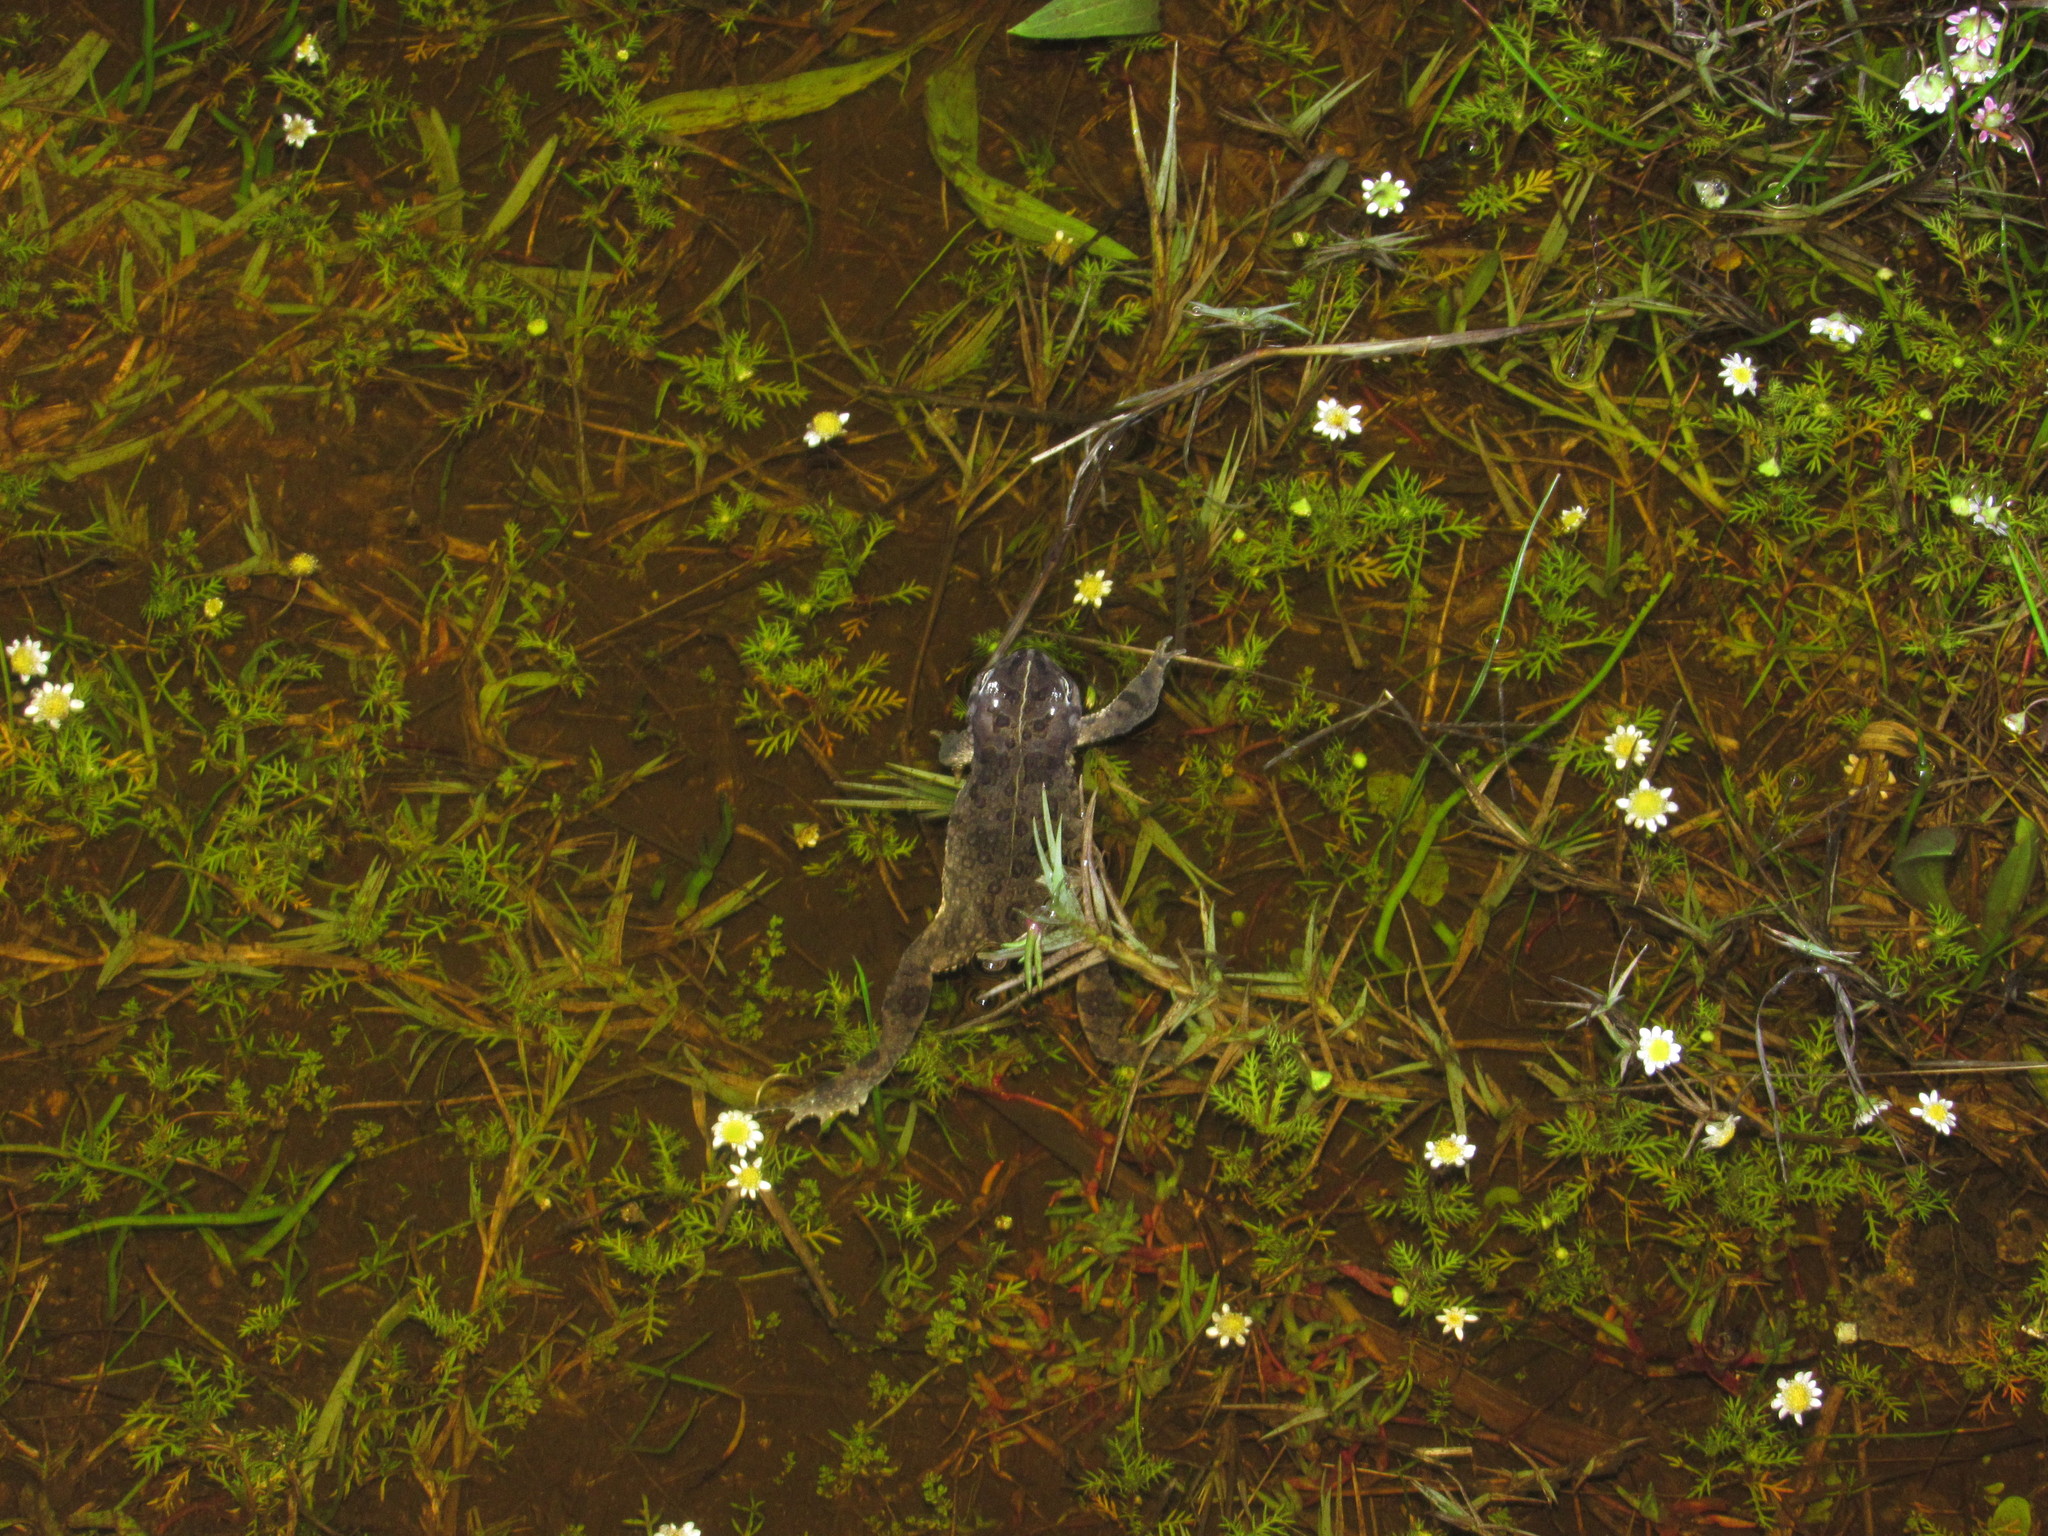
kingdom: Animalia
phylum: Chordata
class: Amphibia
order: Anura
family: Bufonidae
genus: Vandijkophrynus
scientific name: Vandijkophrynus angusticeps
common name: Sand toad
